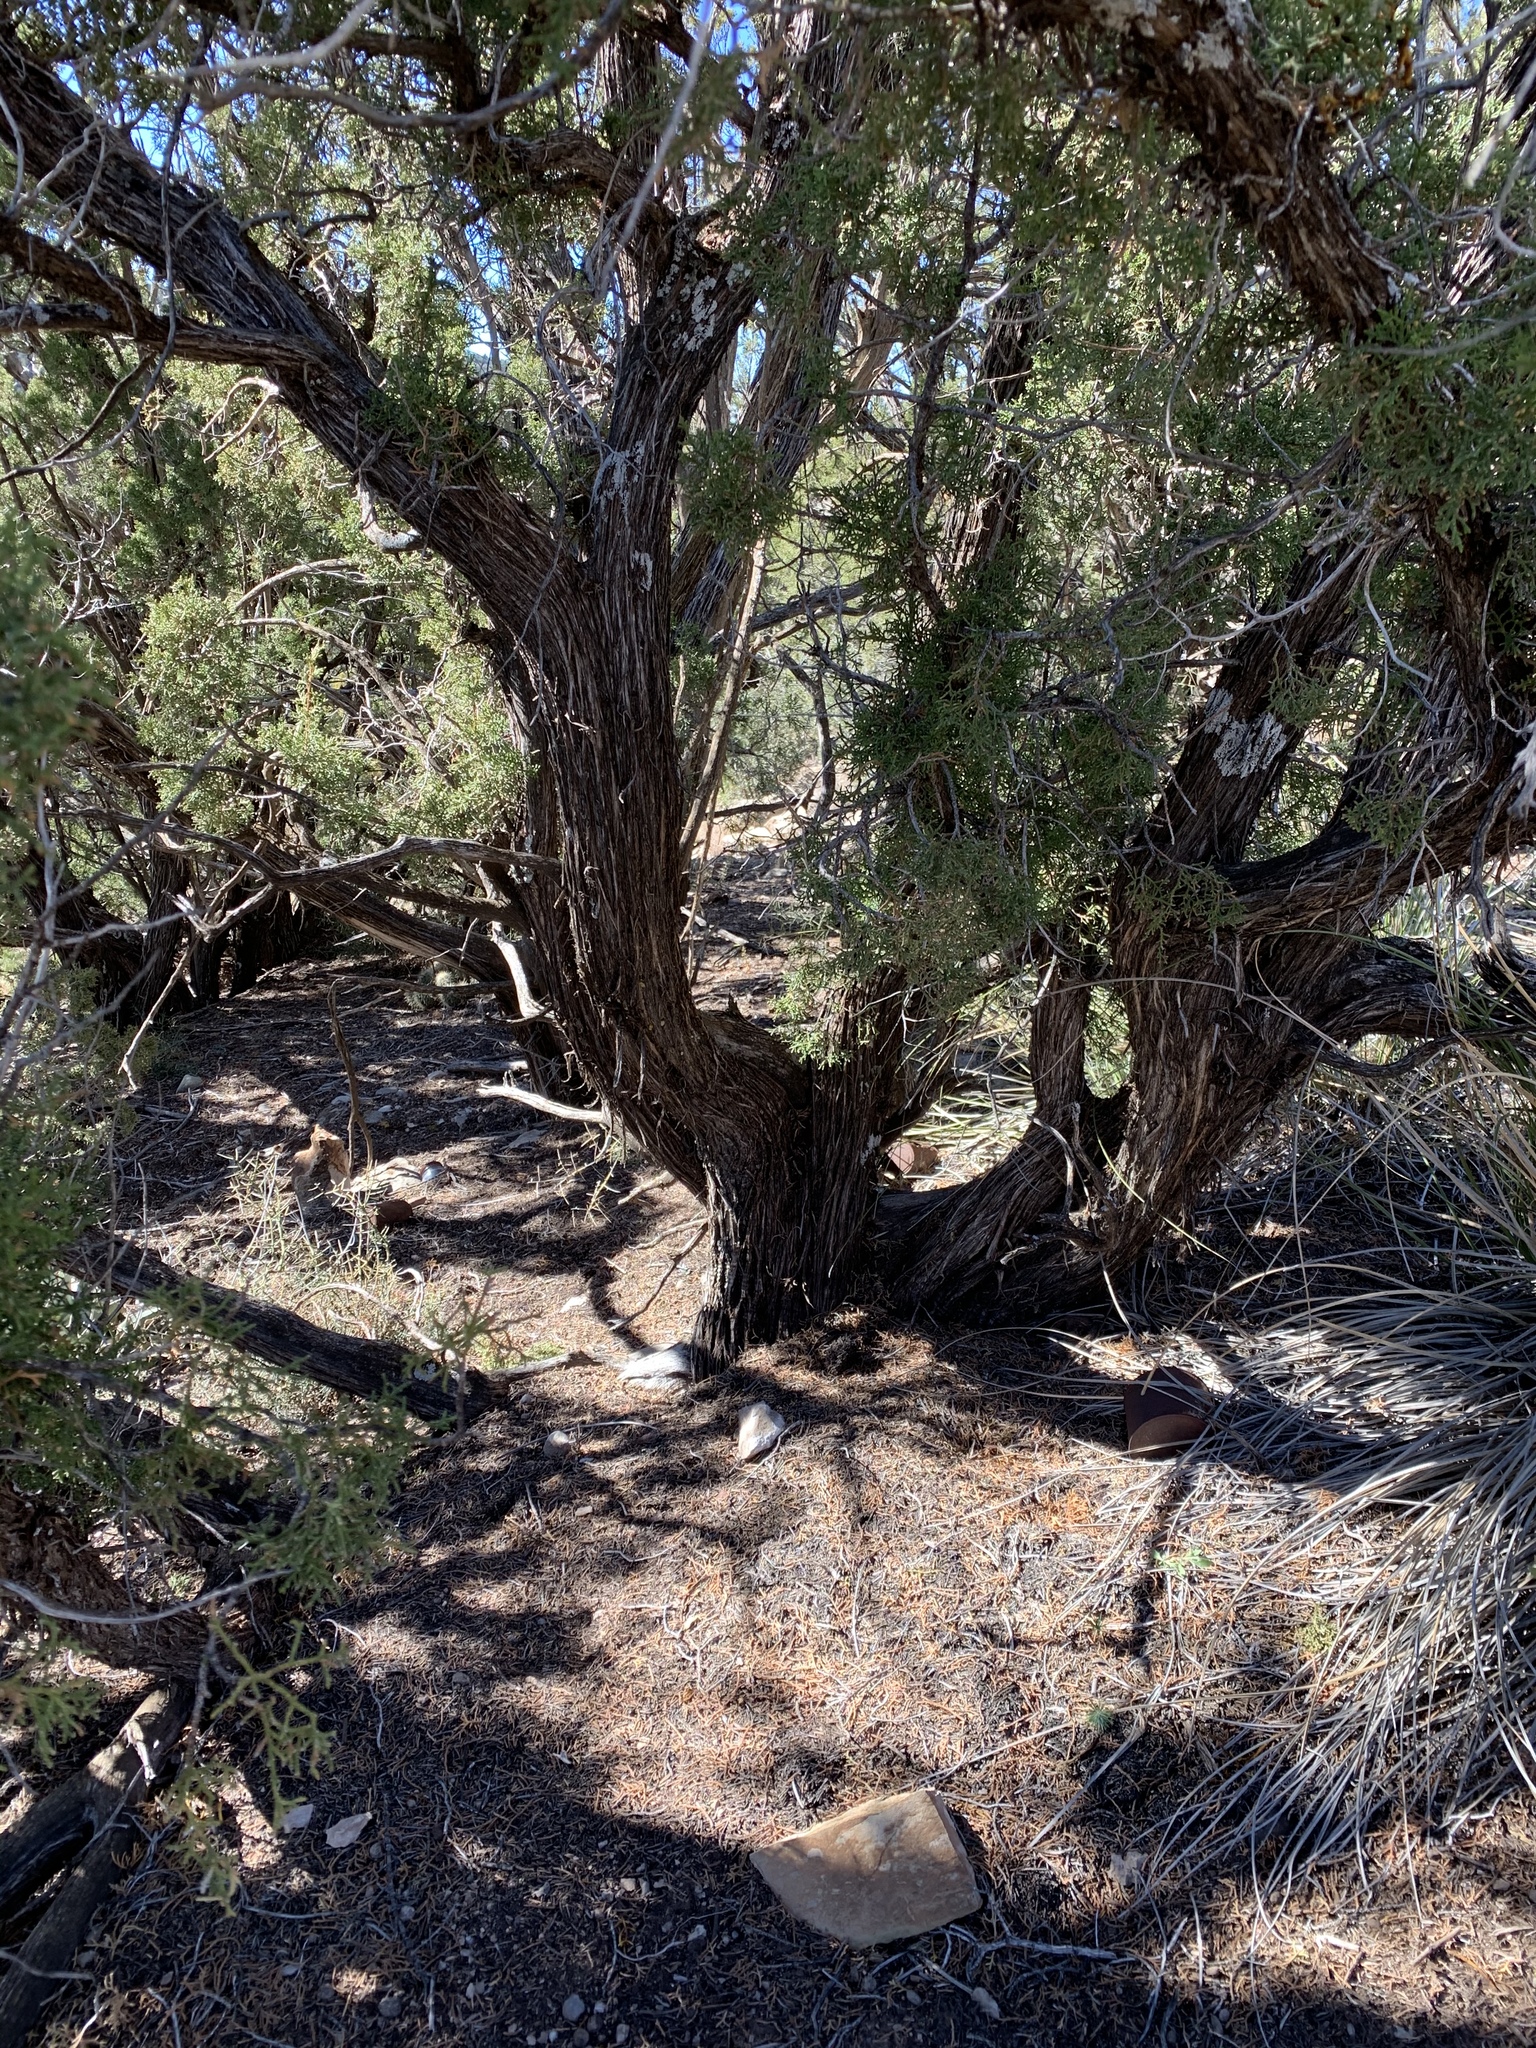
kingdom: Plantae
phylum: Tracheophyta
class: Pinopsida
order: Pinales
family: Cupressaceae
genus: Juniperus
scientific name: Juniperus monosperma
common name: One-seed juniper
